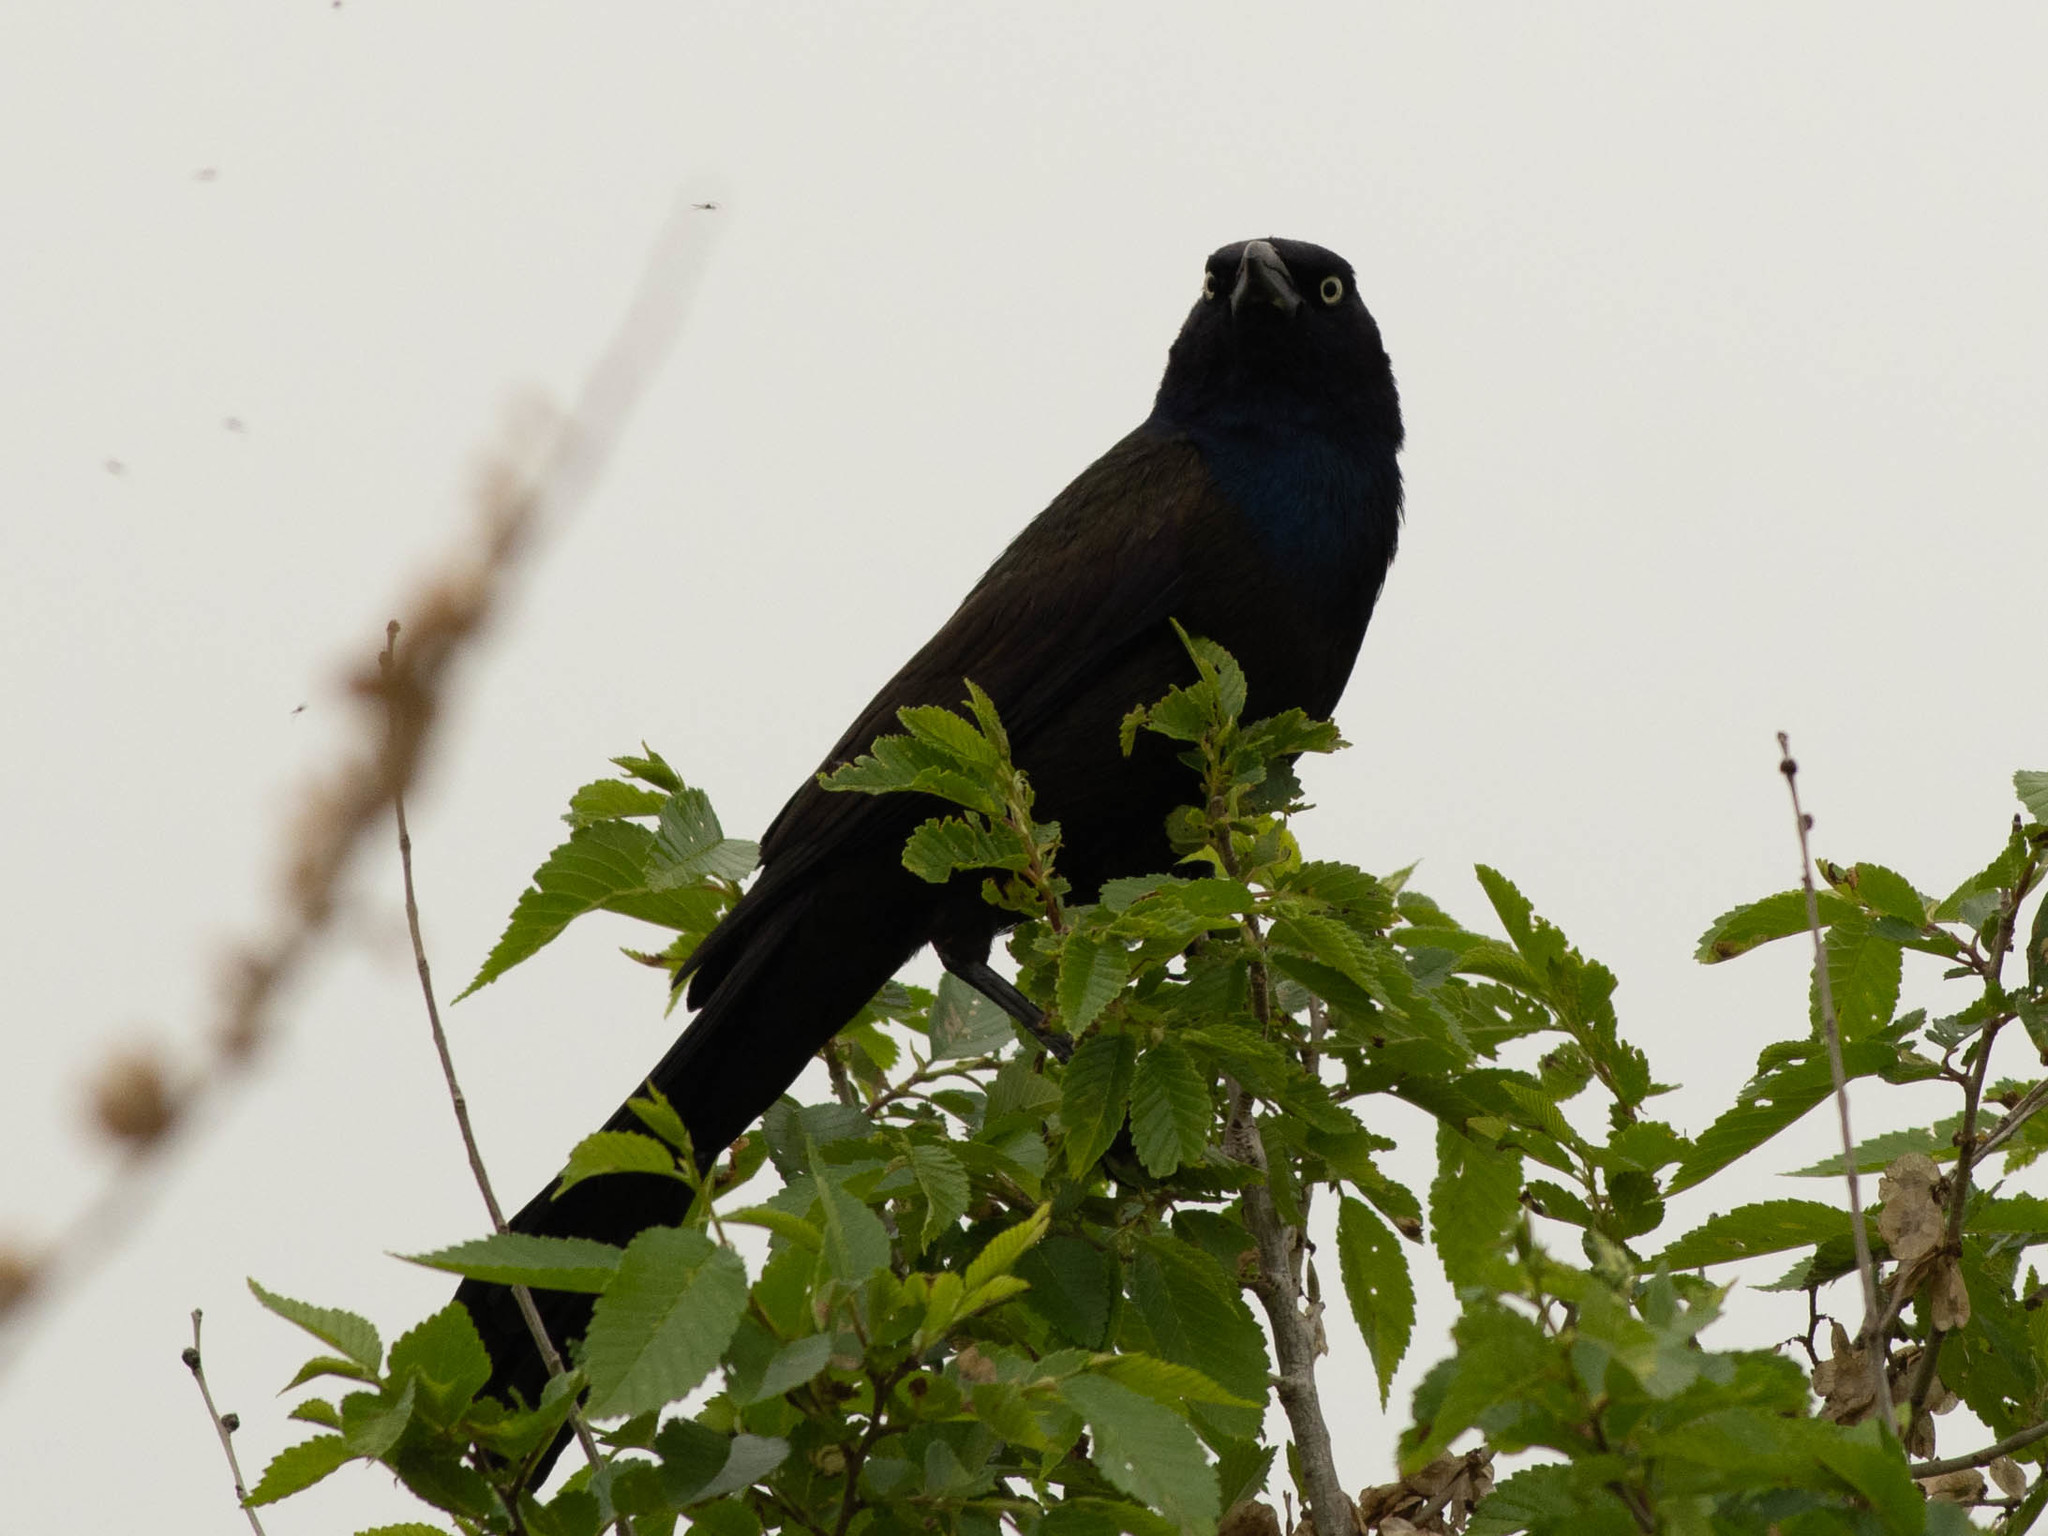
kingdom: Animalia
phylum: Chordata
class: Aves
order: Passeriformes
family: Icteridae
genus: Quiscalus
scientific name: Quiscalus quiscula
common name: Common grackle
